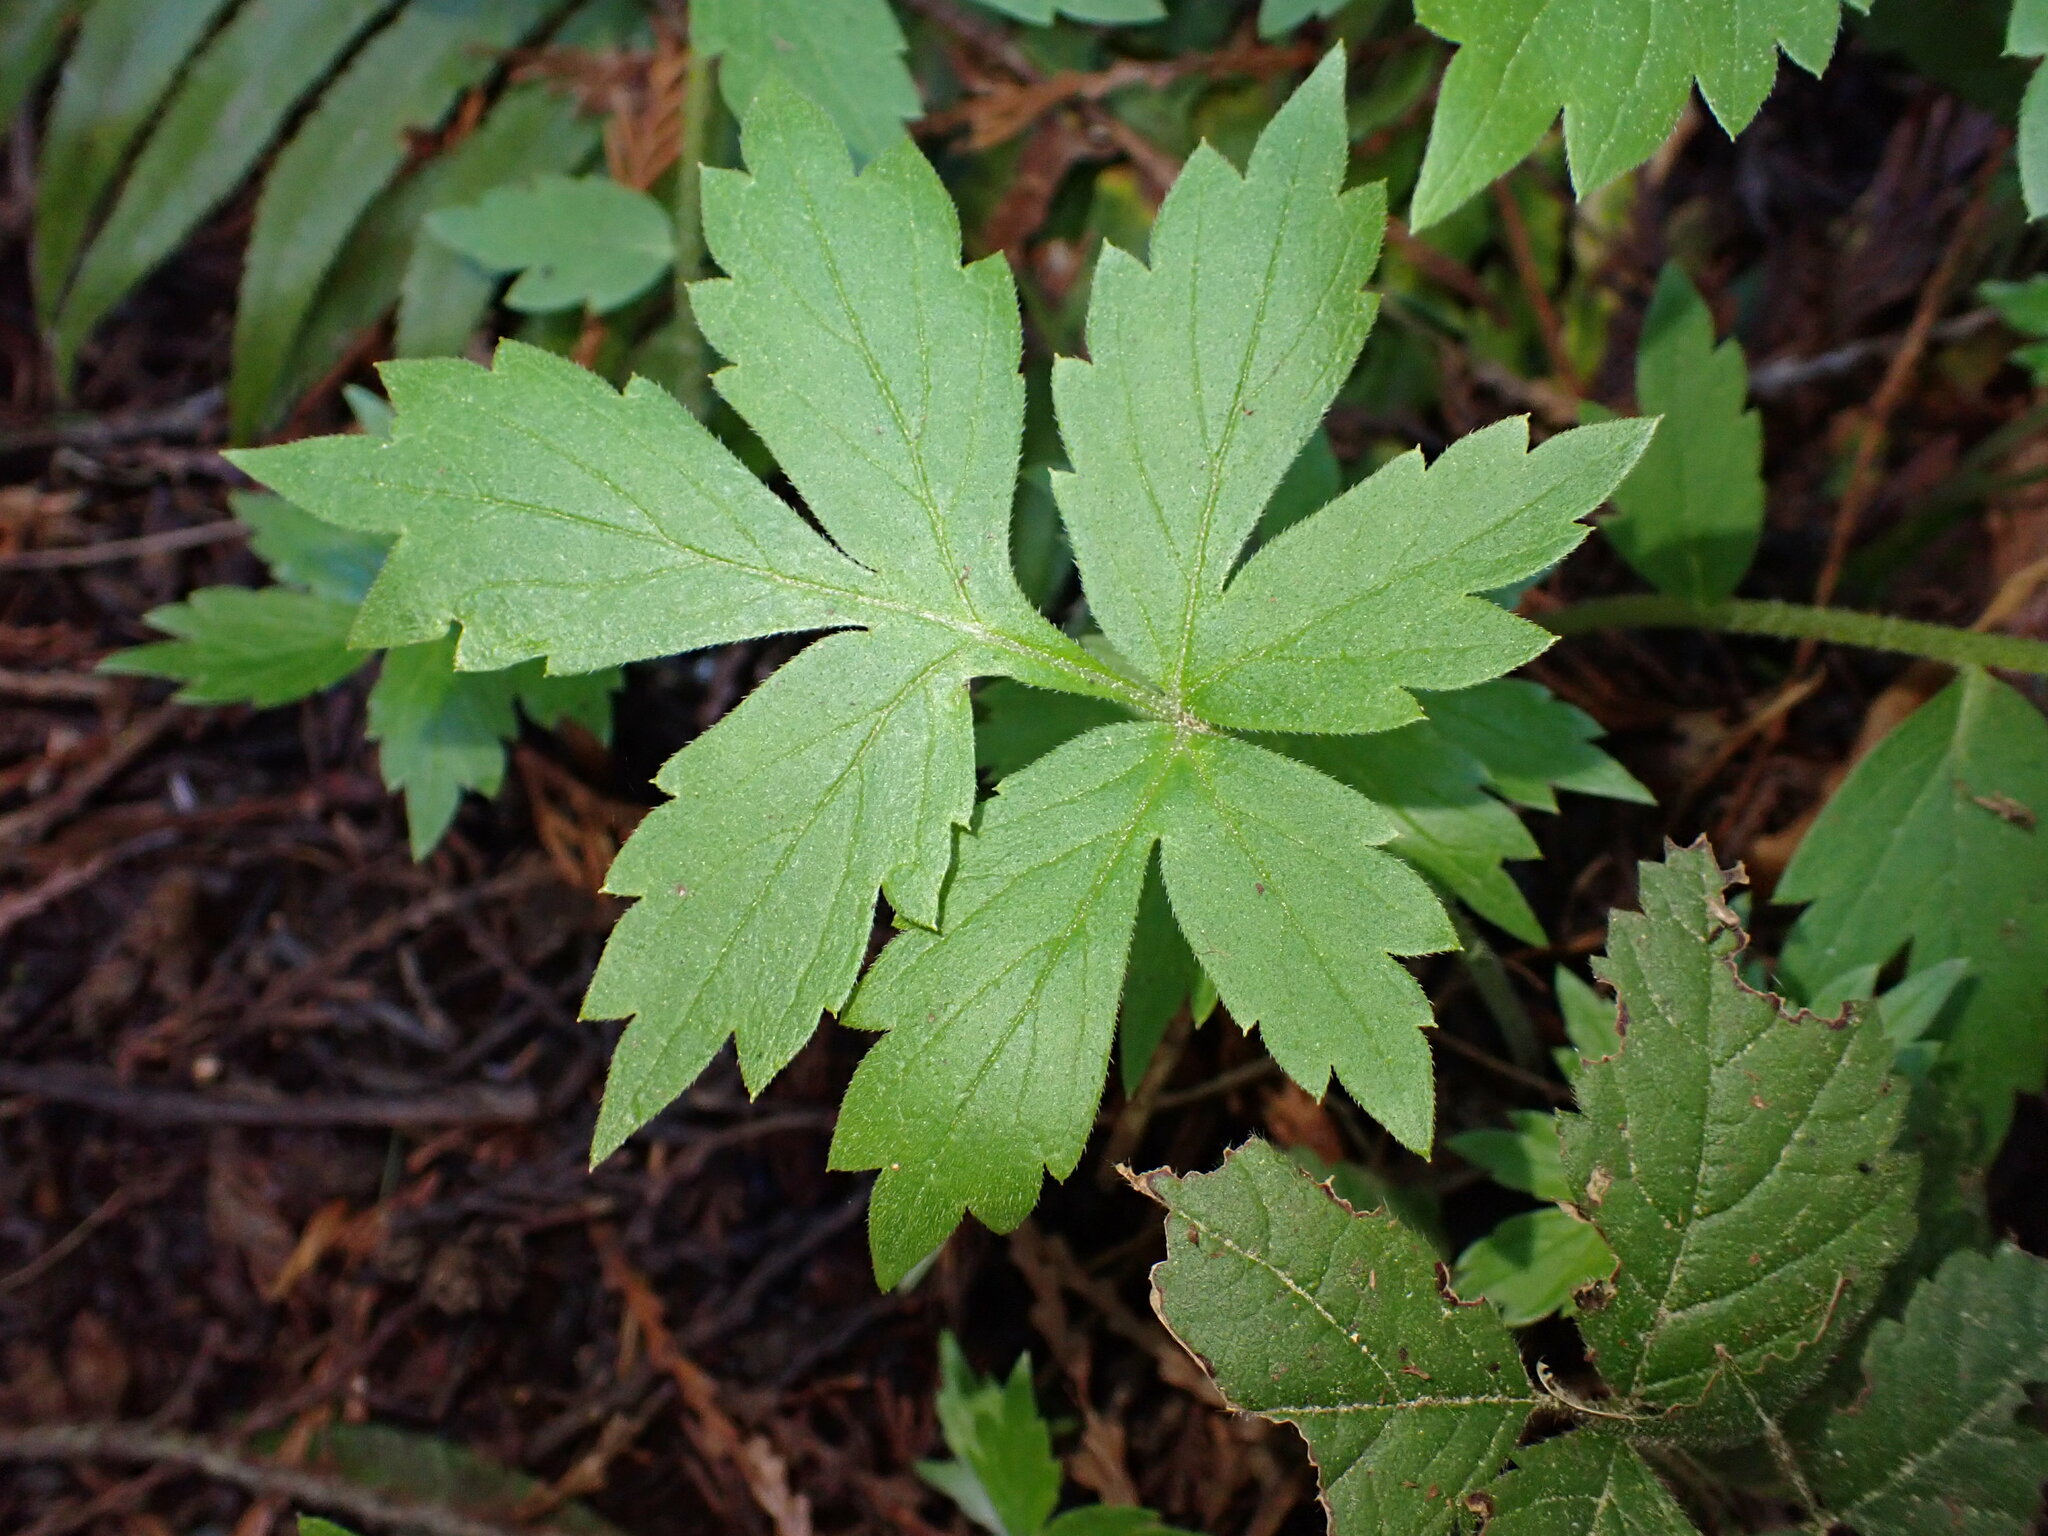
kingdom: Plantae
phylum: Tracheophyta
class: Magnoliopsida
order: Boraginales
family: Hydrophyllaceae
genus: Hydrophyllum
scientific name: Hydrophyllum tenuipes
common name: Pacific waterleaf
